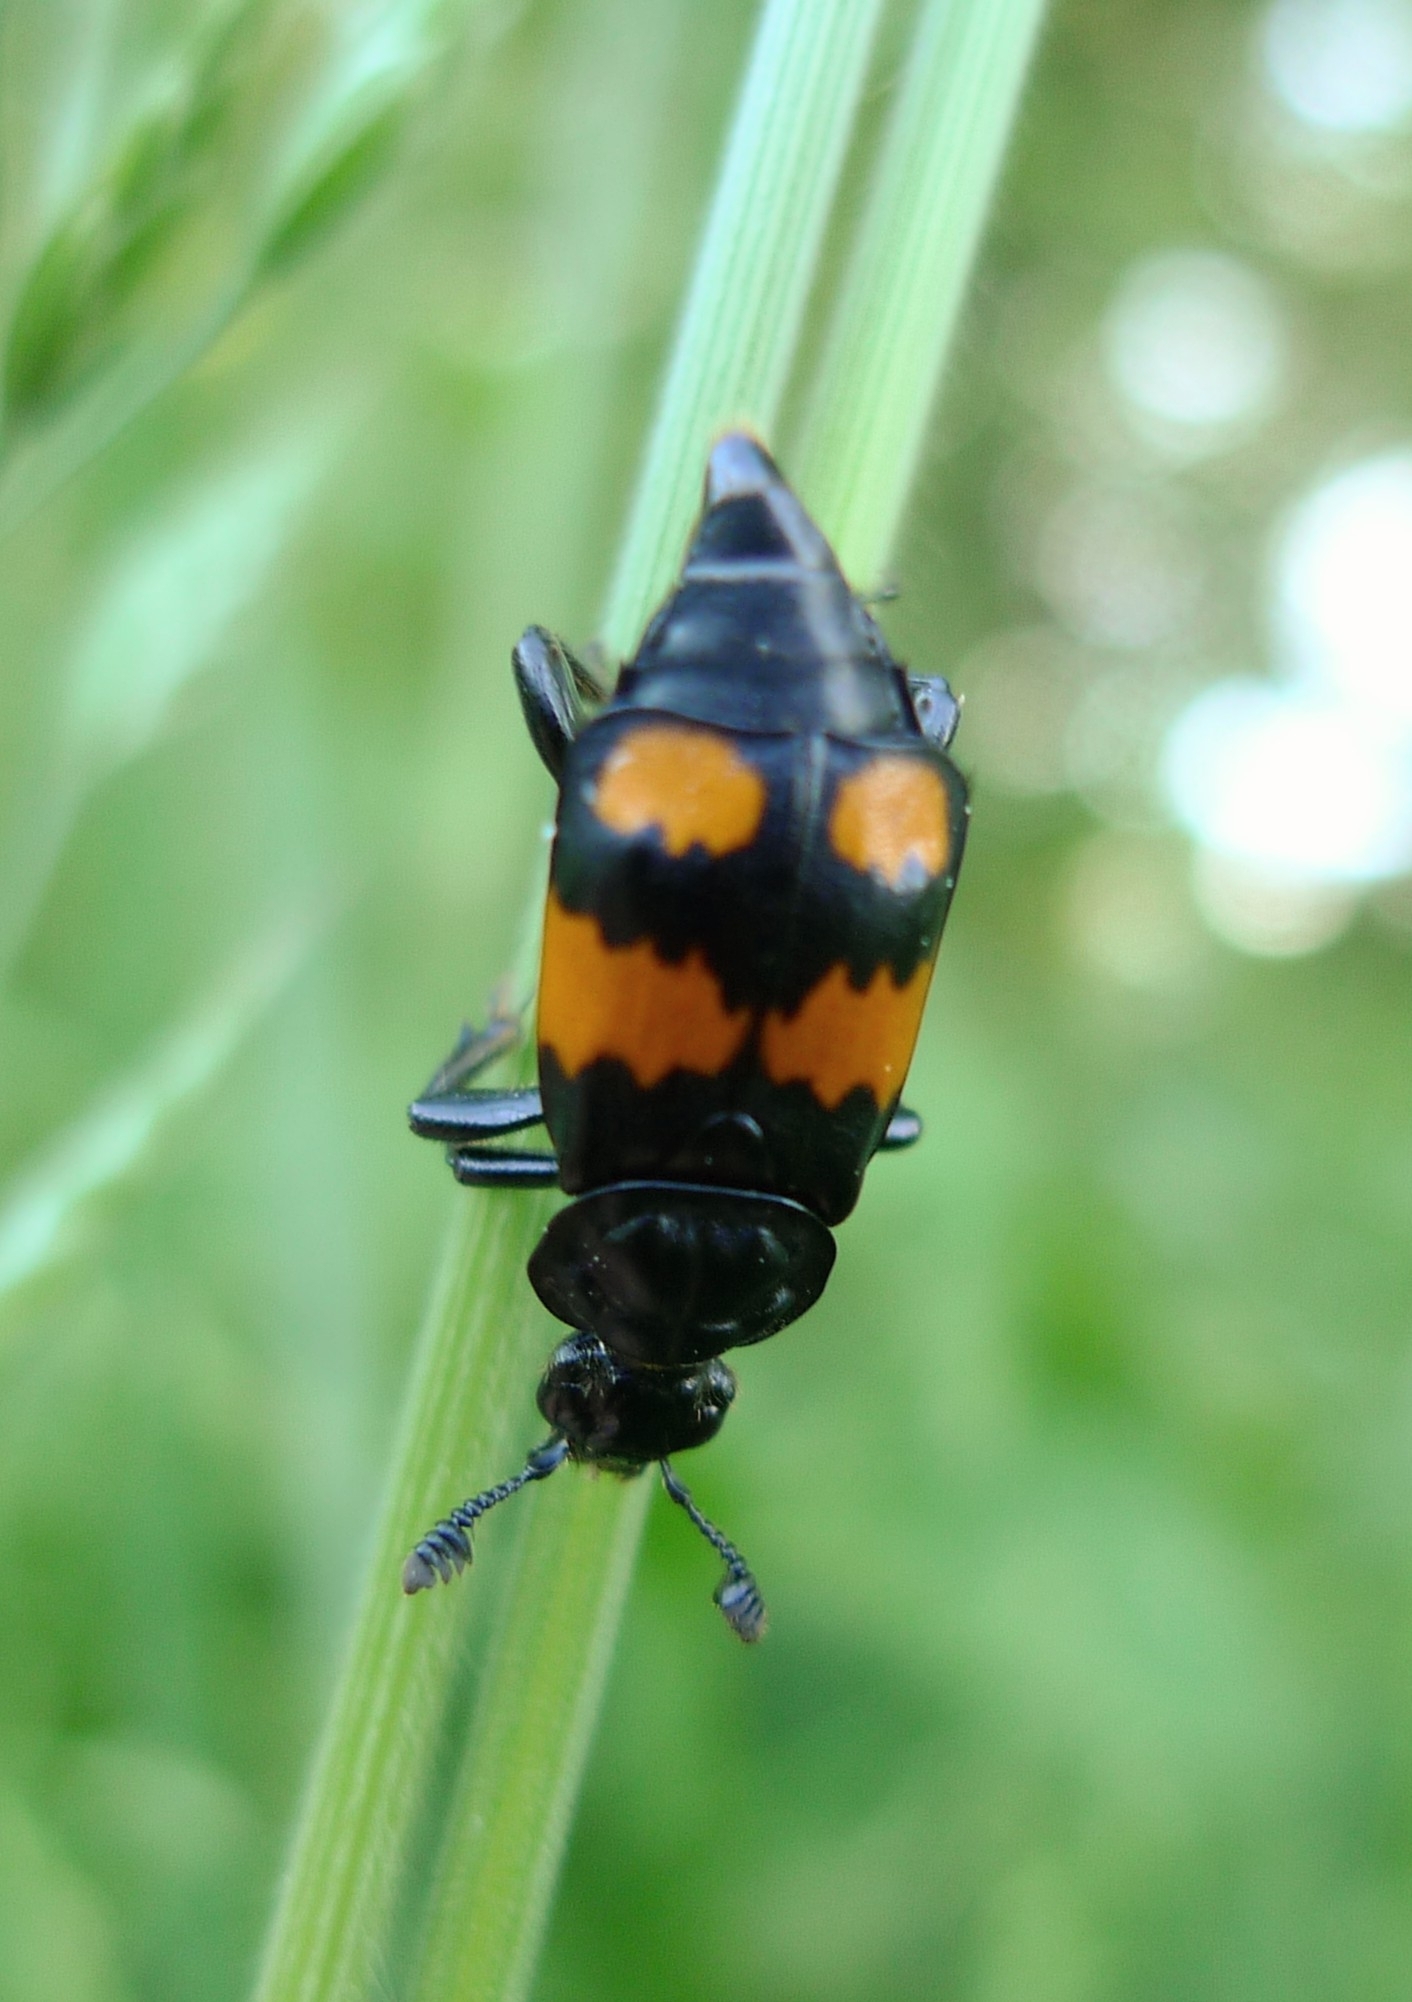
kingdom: Animalia
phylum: Arthropoda
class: Insecta
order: Coleoptera
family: Staphylinidae
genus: Nicrophorus
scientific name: Nicrophorus vespilloides
